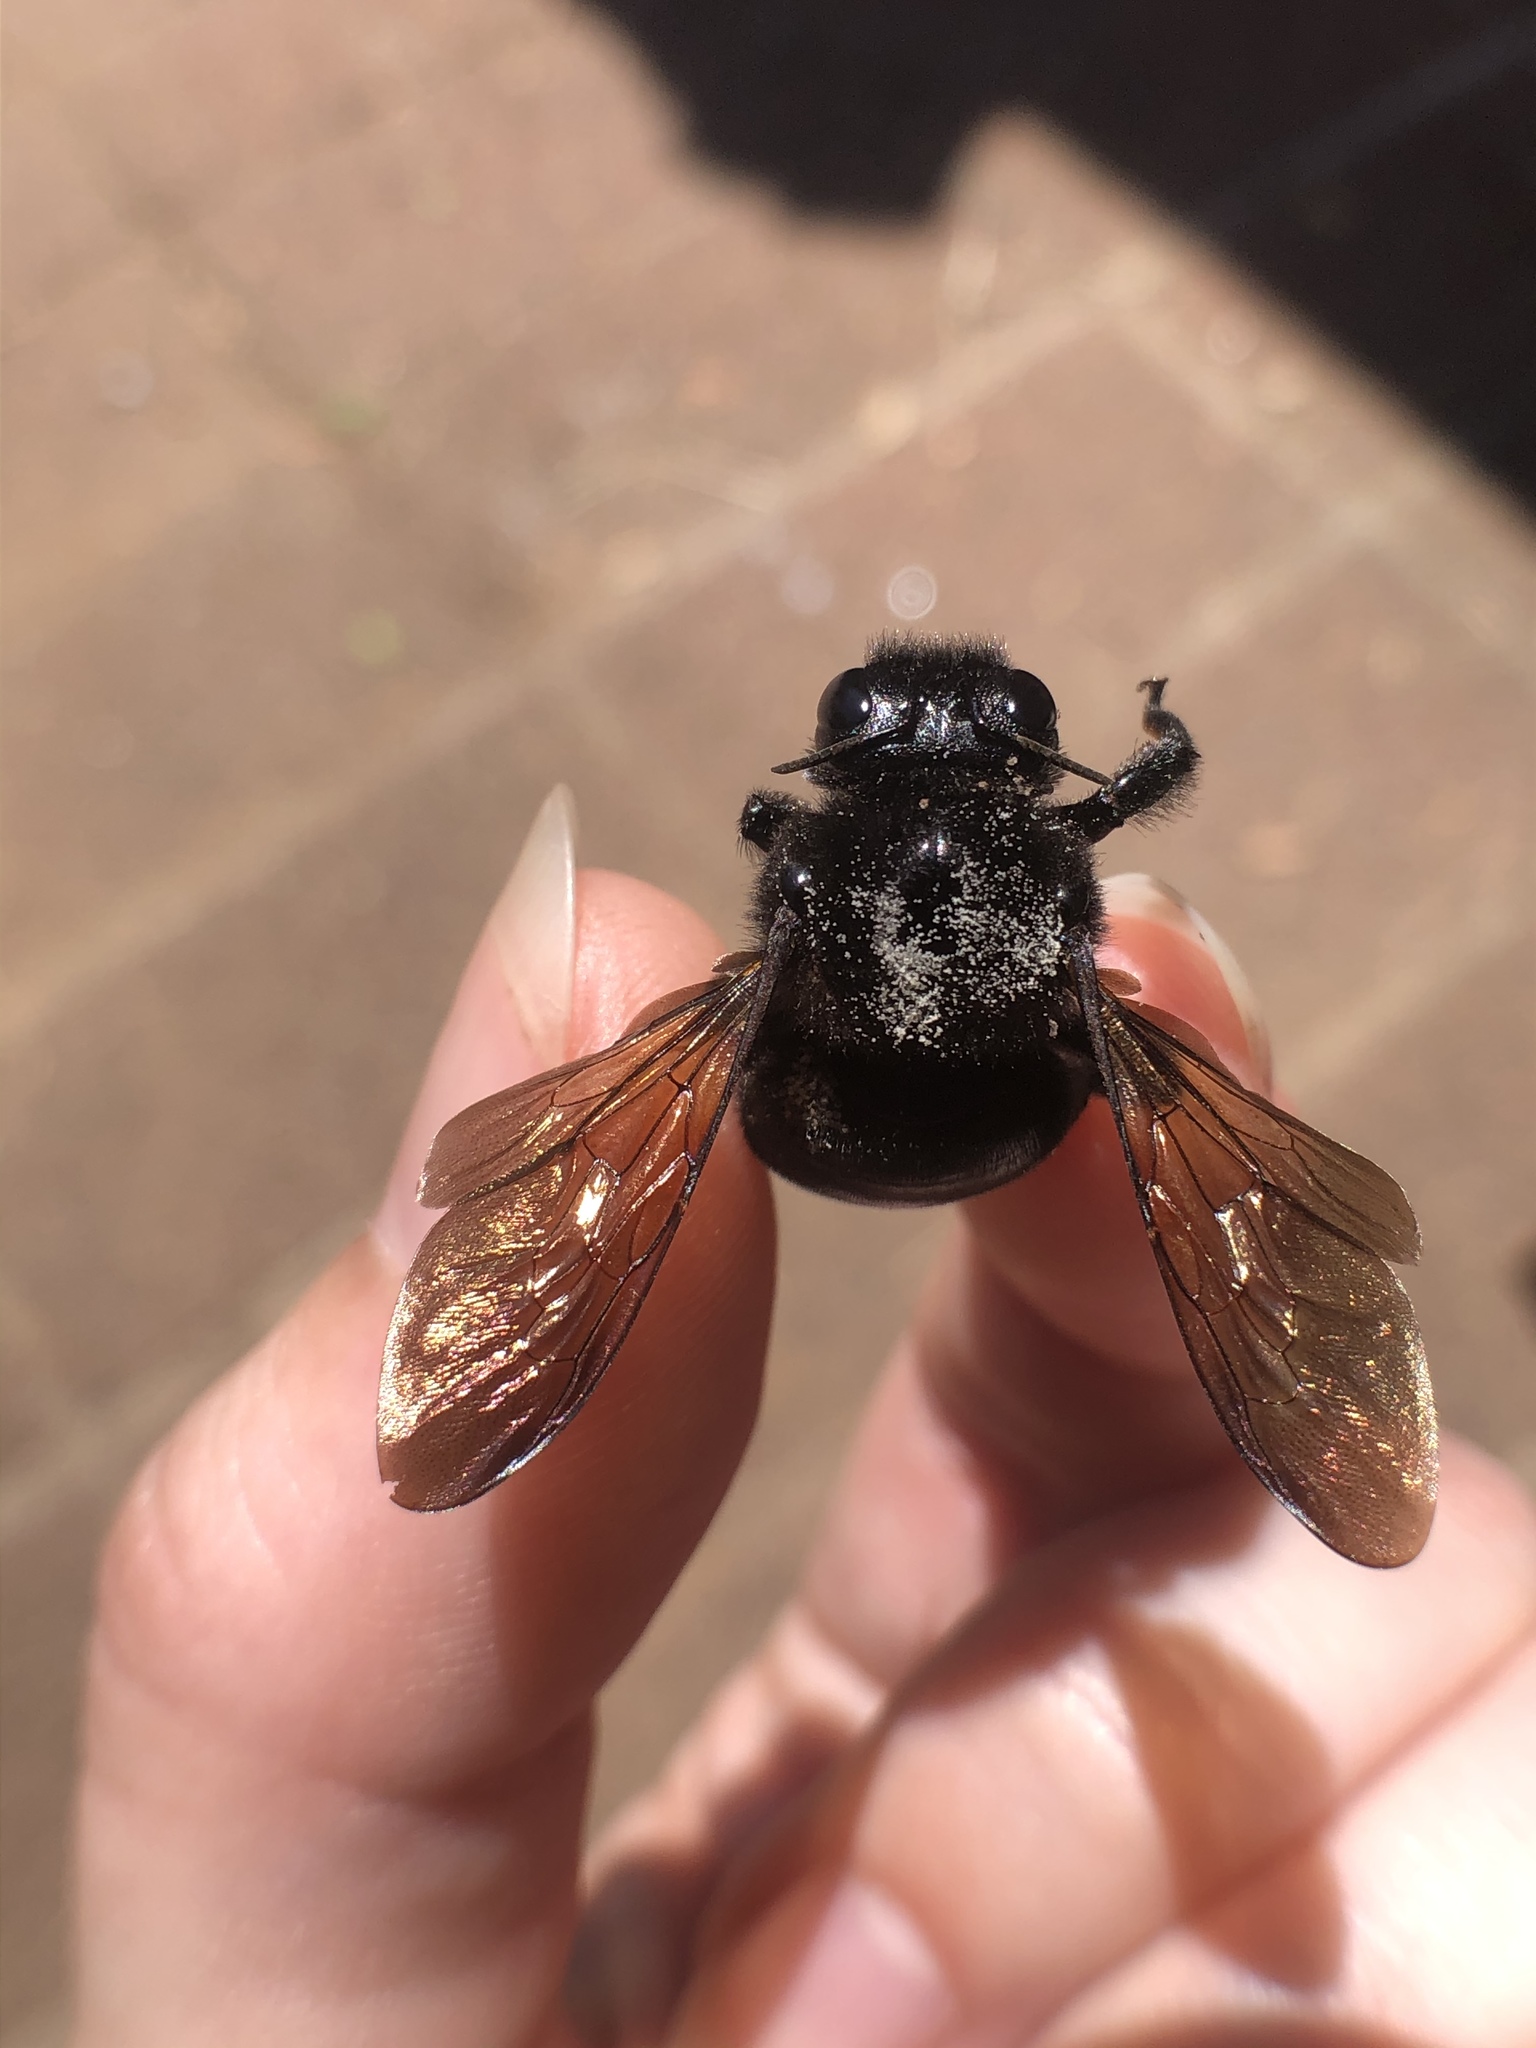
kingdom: Animalia
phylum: Arthropoda
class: Insecta
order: Hymenoptera
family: Apidae
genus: Xylocopa
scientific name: Xylocopa sonorina
